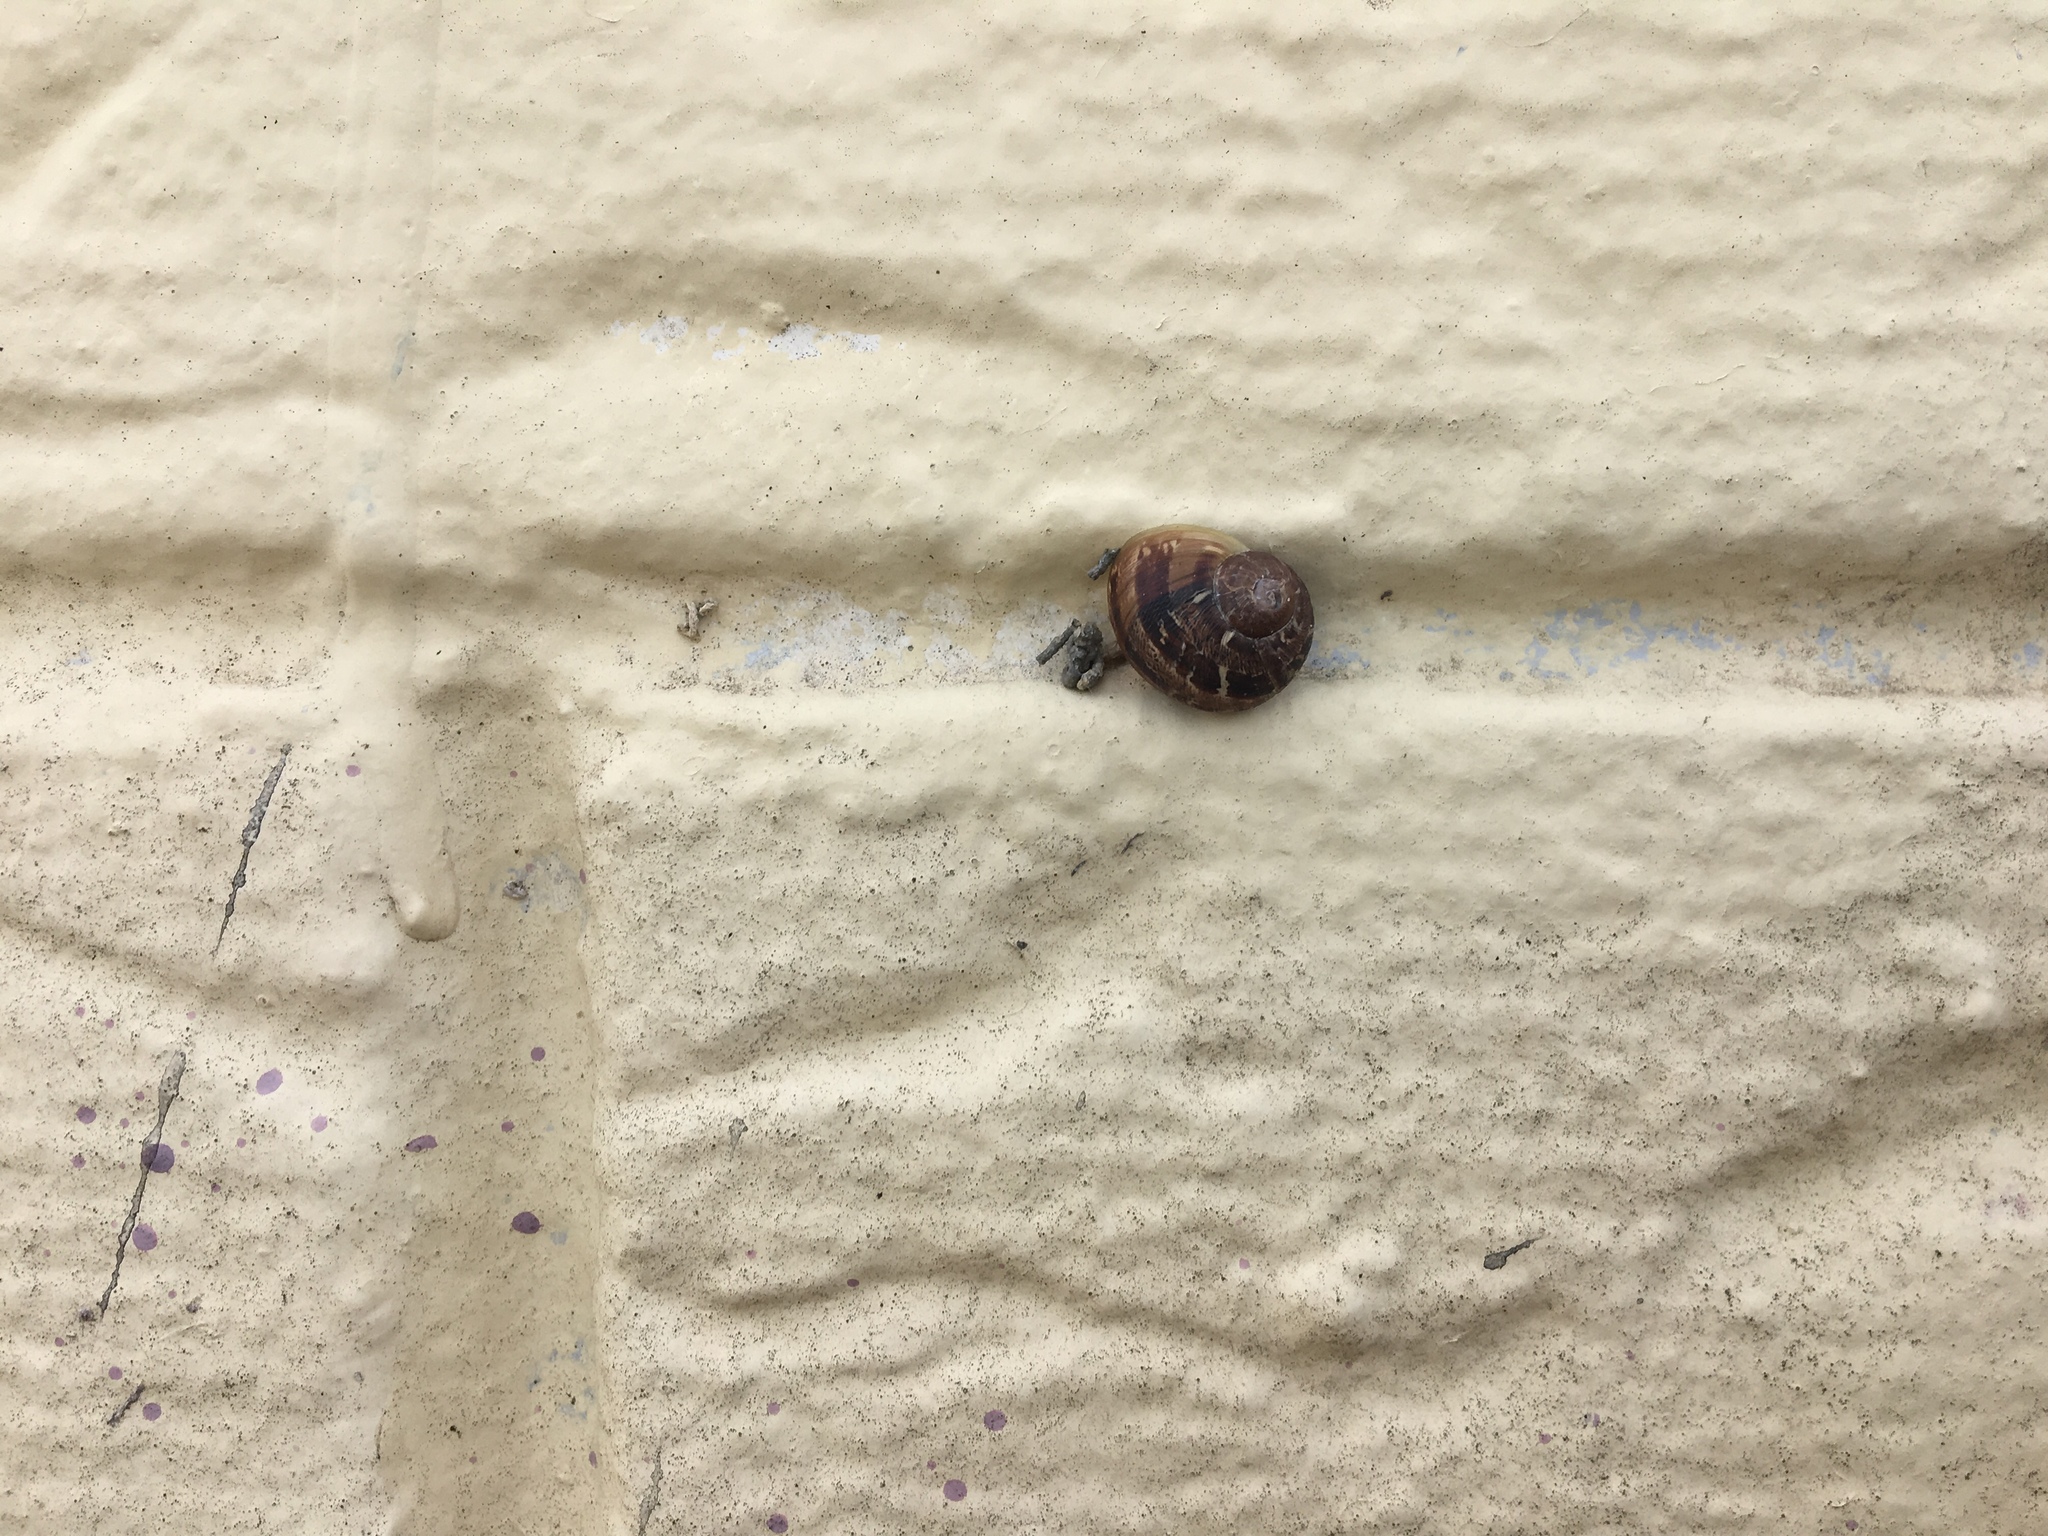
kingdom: Animalia
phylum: Mollusca
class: Gastropoda
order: Stylommatophora
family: Helicidae
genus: Cornu
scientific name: Cornu aspersum
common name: Brown garden snail
